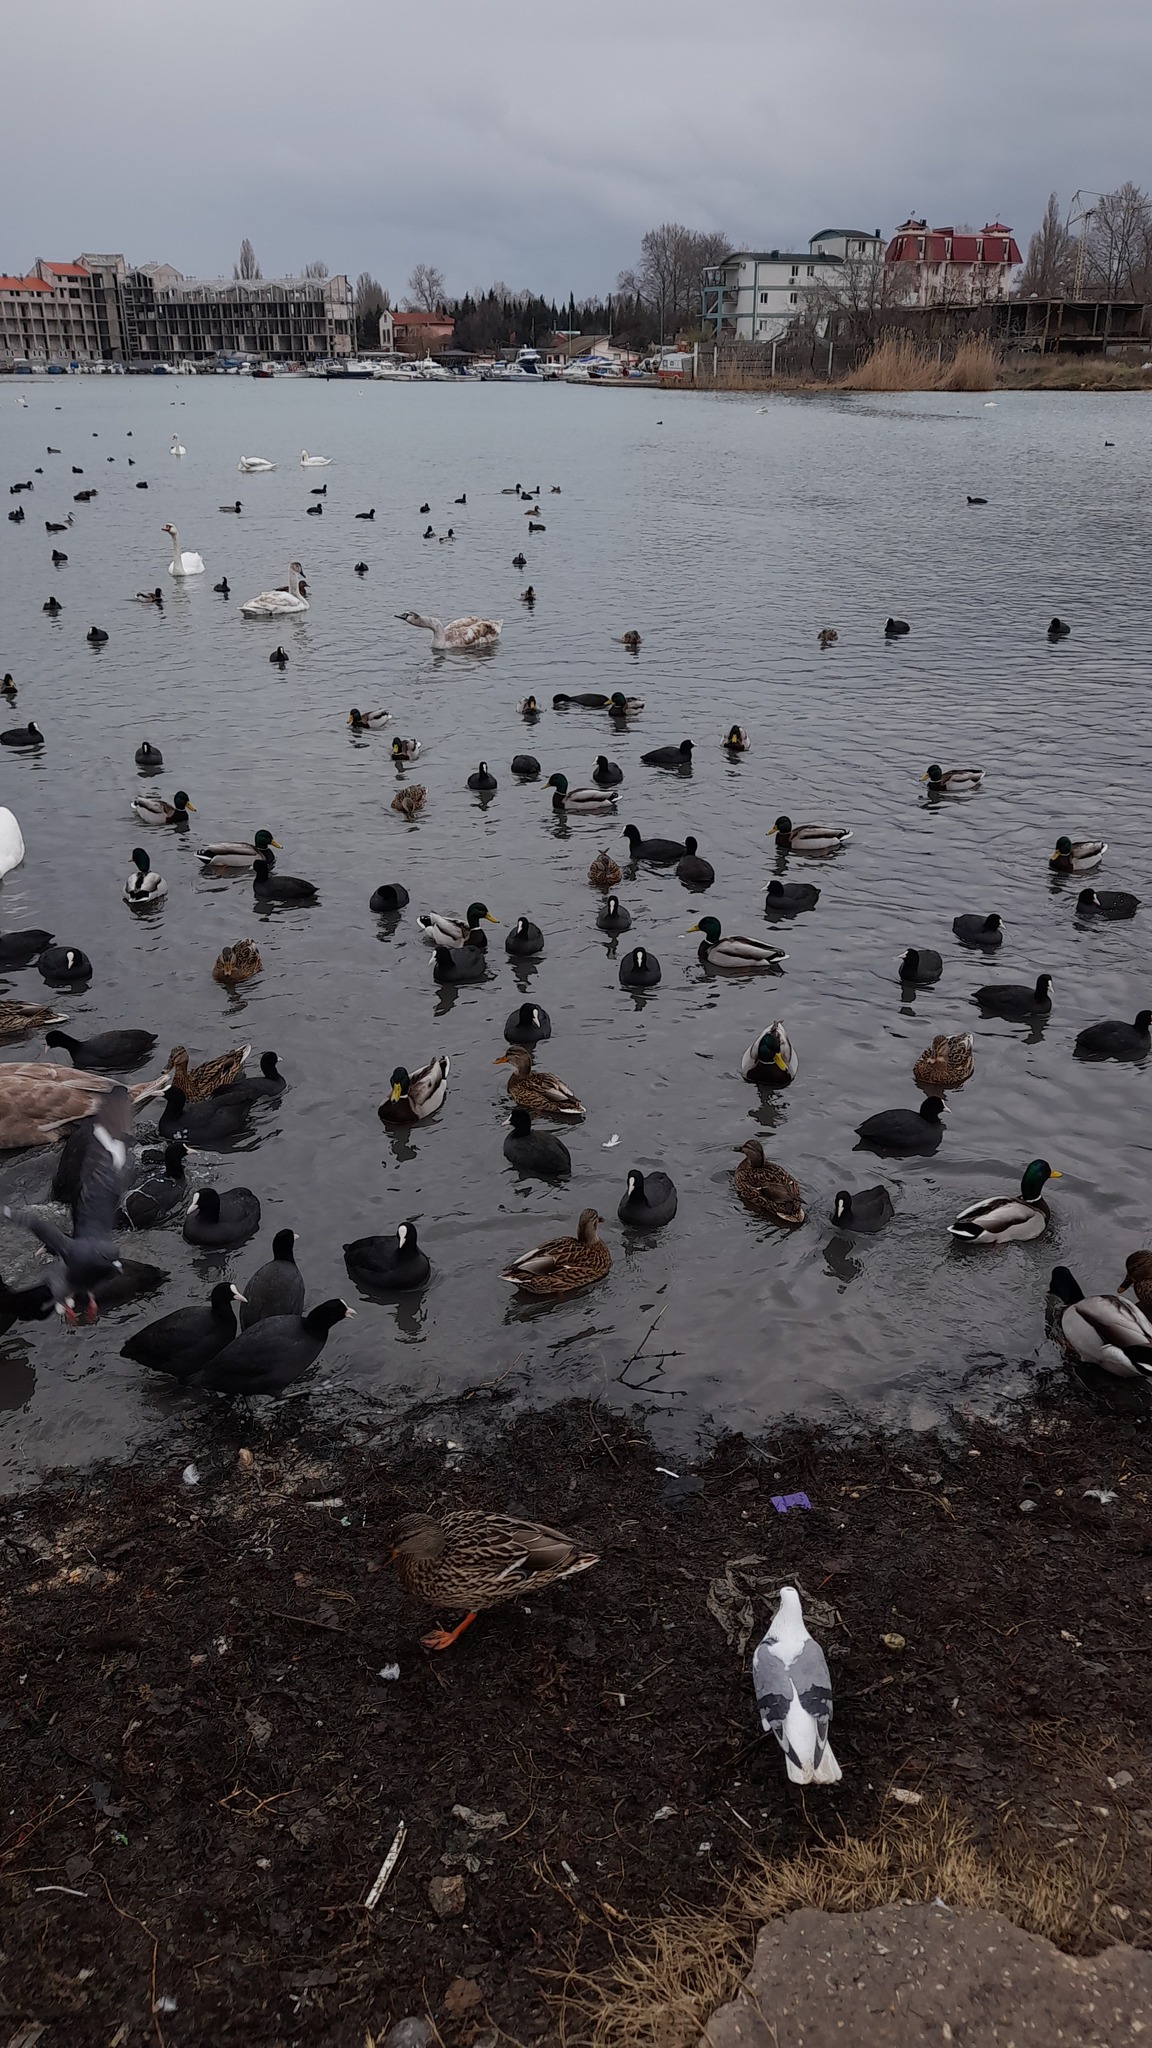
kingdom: Animalia
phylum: Chordata
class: Aves
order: Anseriformes
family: Anatidae
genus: Anas
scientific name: Anas platyrhynchos
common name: Mallard
